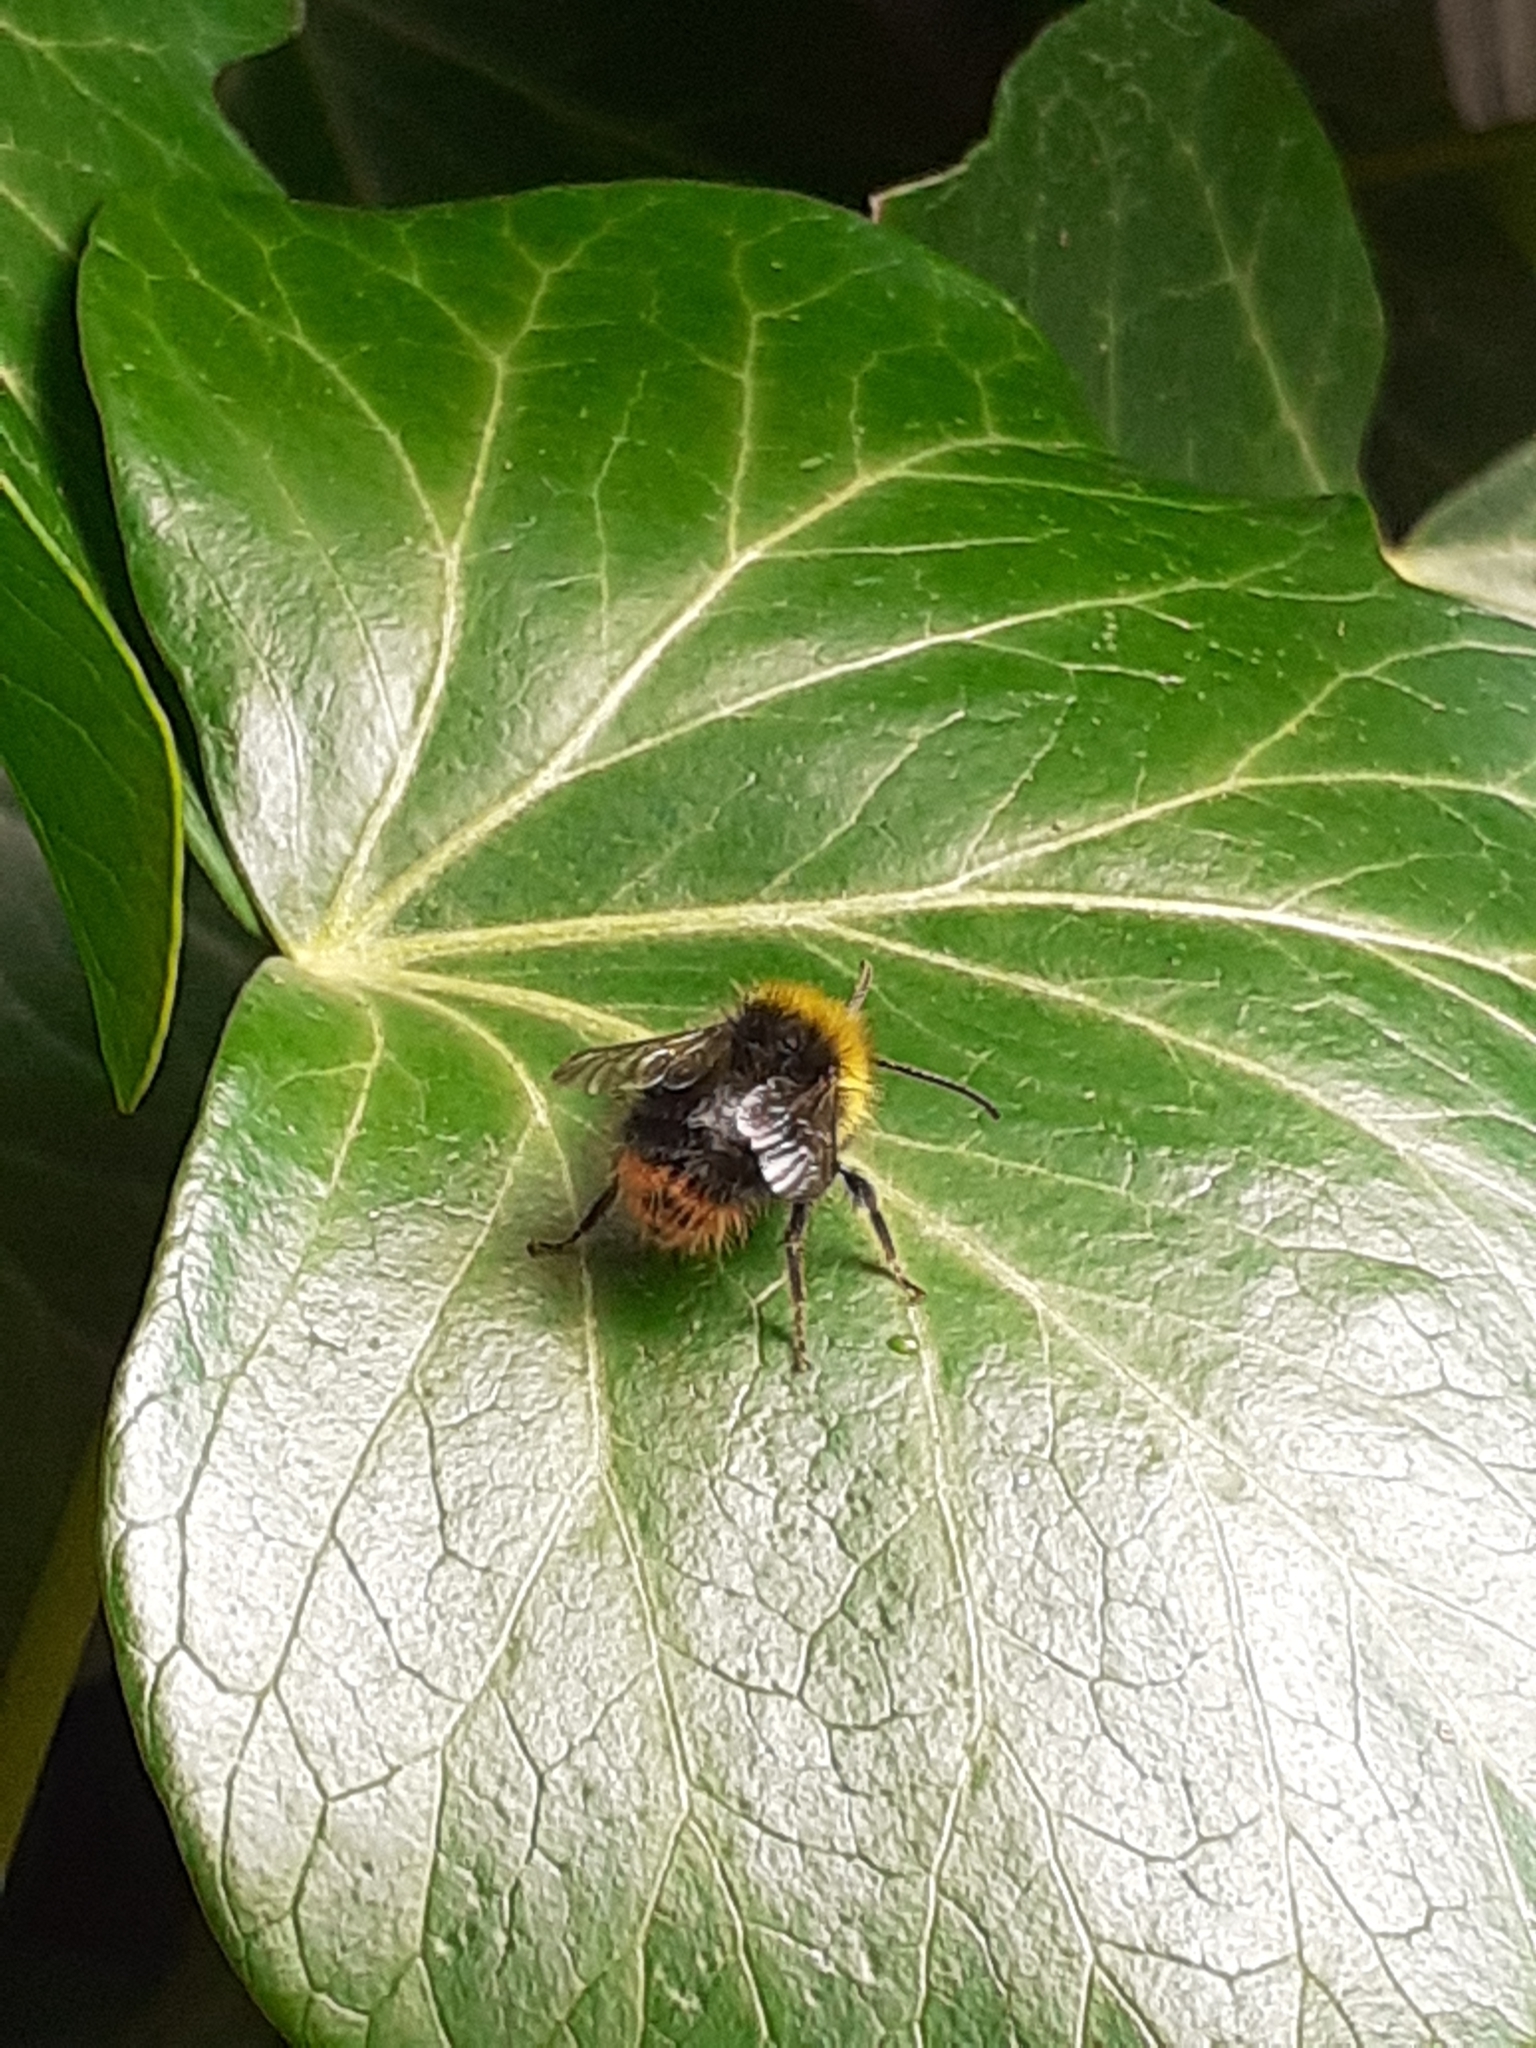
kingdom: Animalia
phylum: Arthropoda
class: Insecta
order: Hymenoptera
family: Apidae
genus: Bombus
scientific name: Bombus pratorum
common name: Early humble-bee
